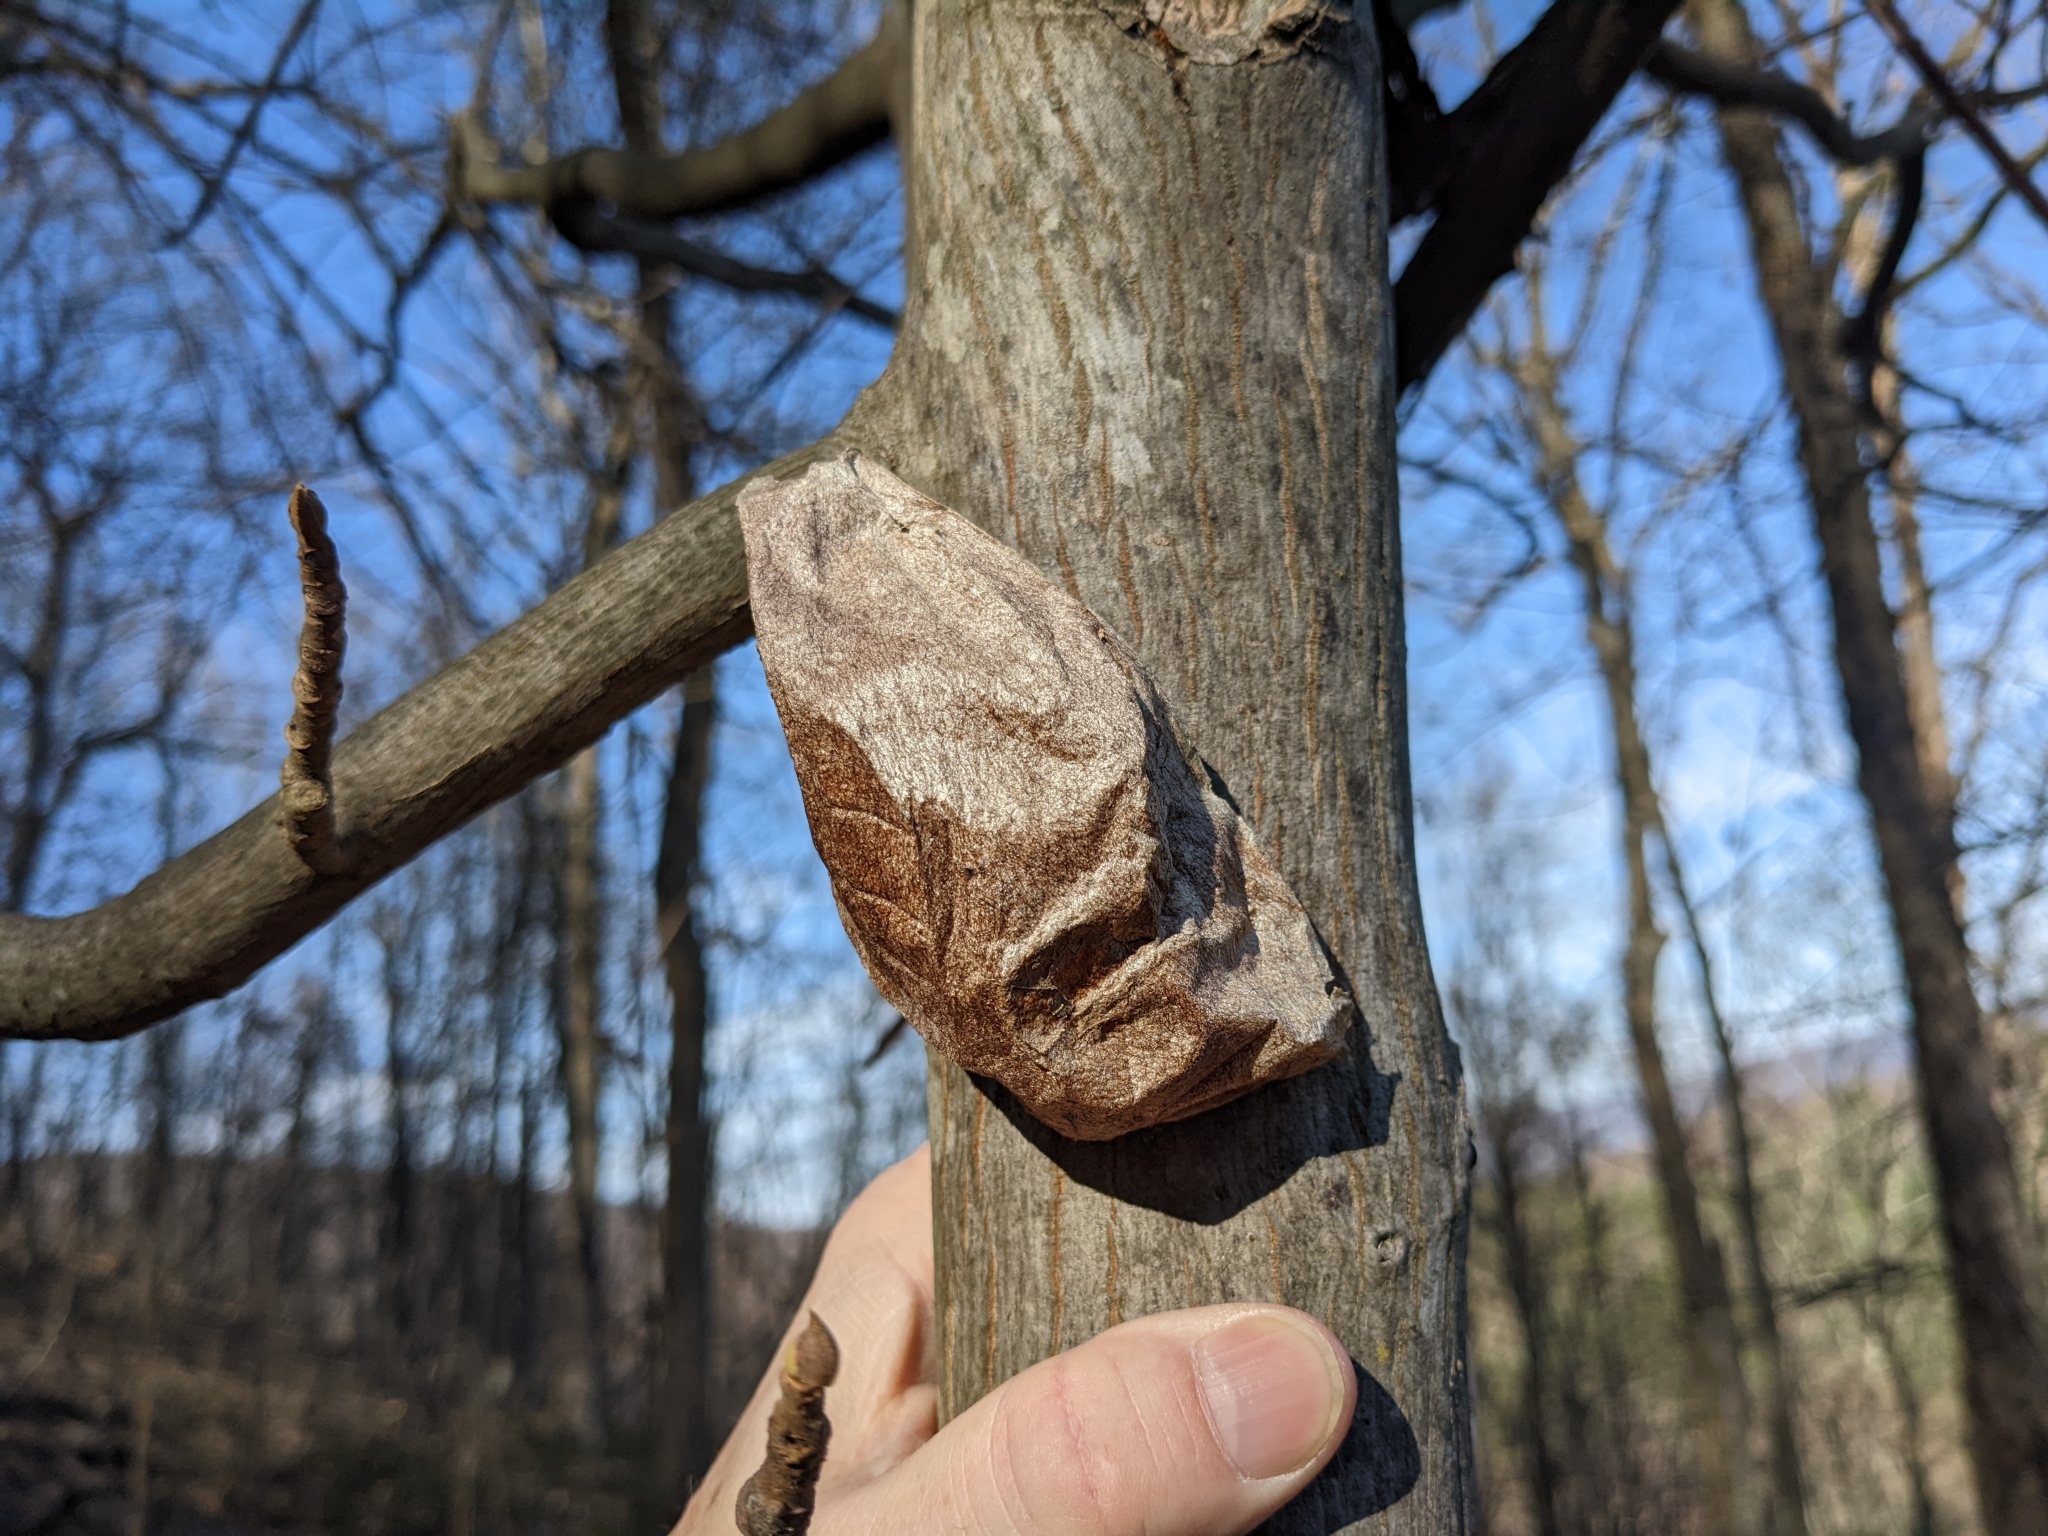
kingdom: Animalia
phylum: Arthropoda
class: Insecta
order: Lepidoptera
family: Saturniidae
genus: Hyalophora
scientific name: Hyalophora cecropia
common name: Cecropia silkmoth
